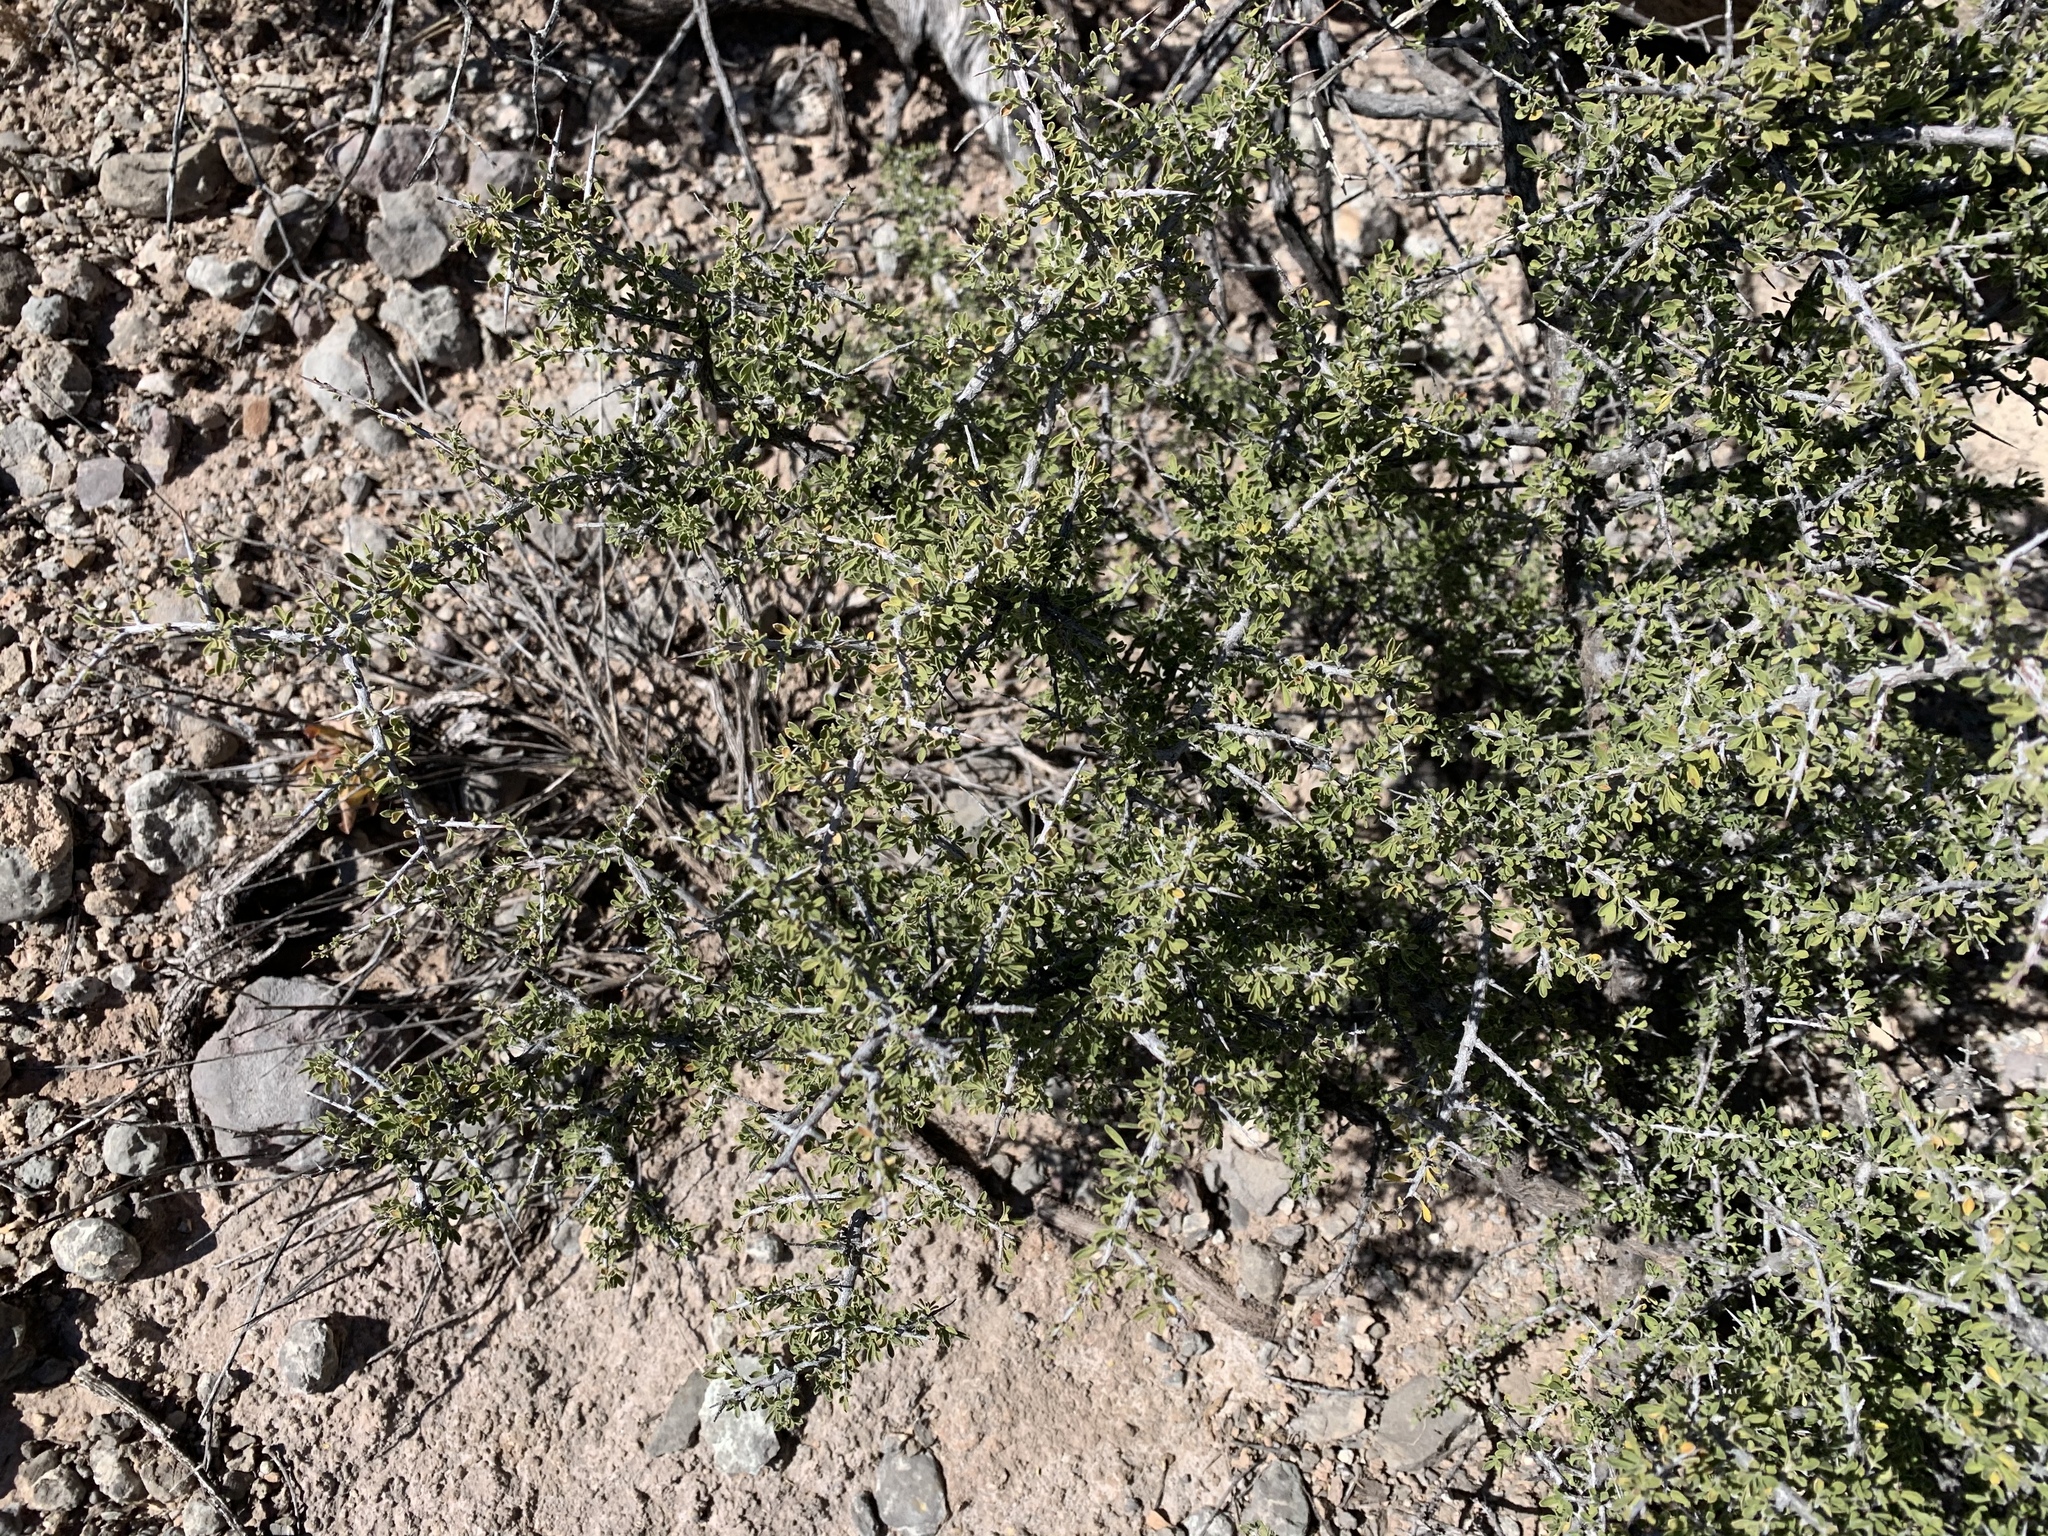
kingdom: Plantae
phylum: Tracheophyta
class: Magnoliopsida
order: Rosales
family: Rhamnaceae
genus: Condalia
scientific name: Condalia warnockii
